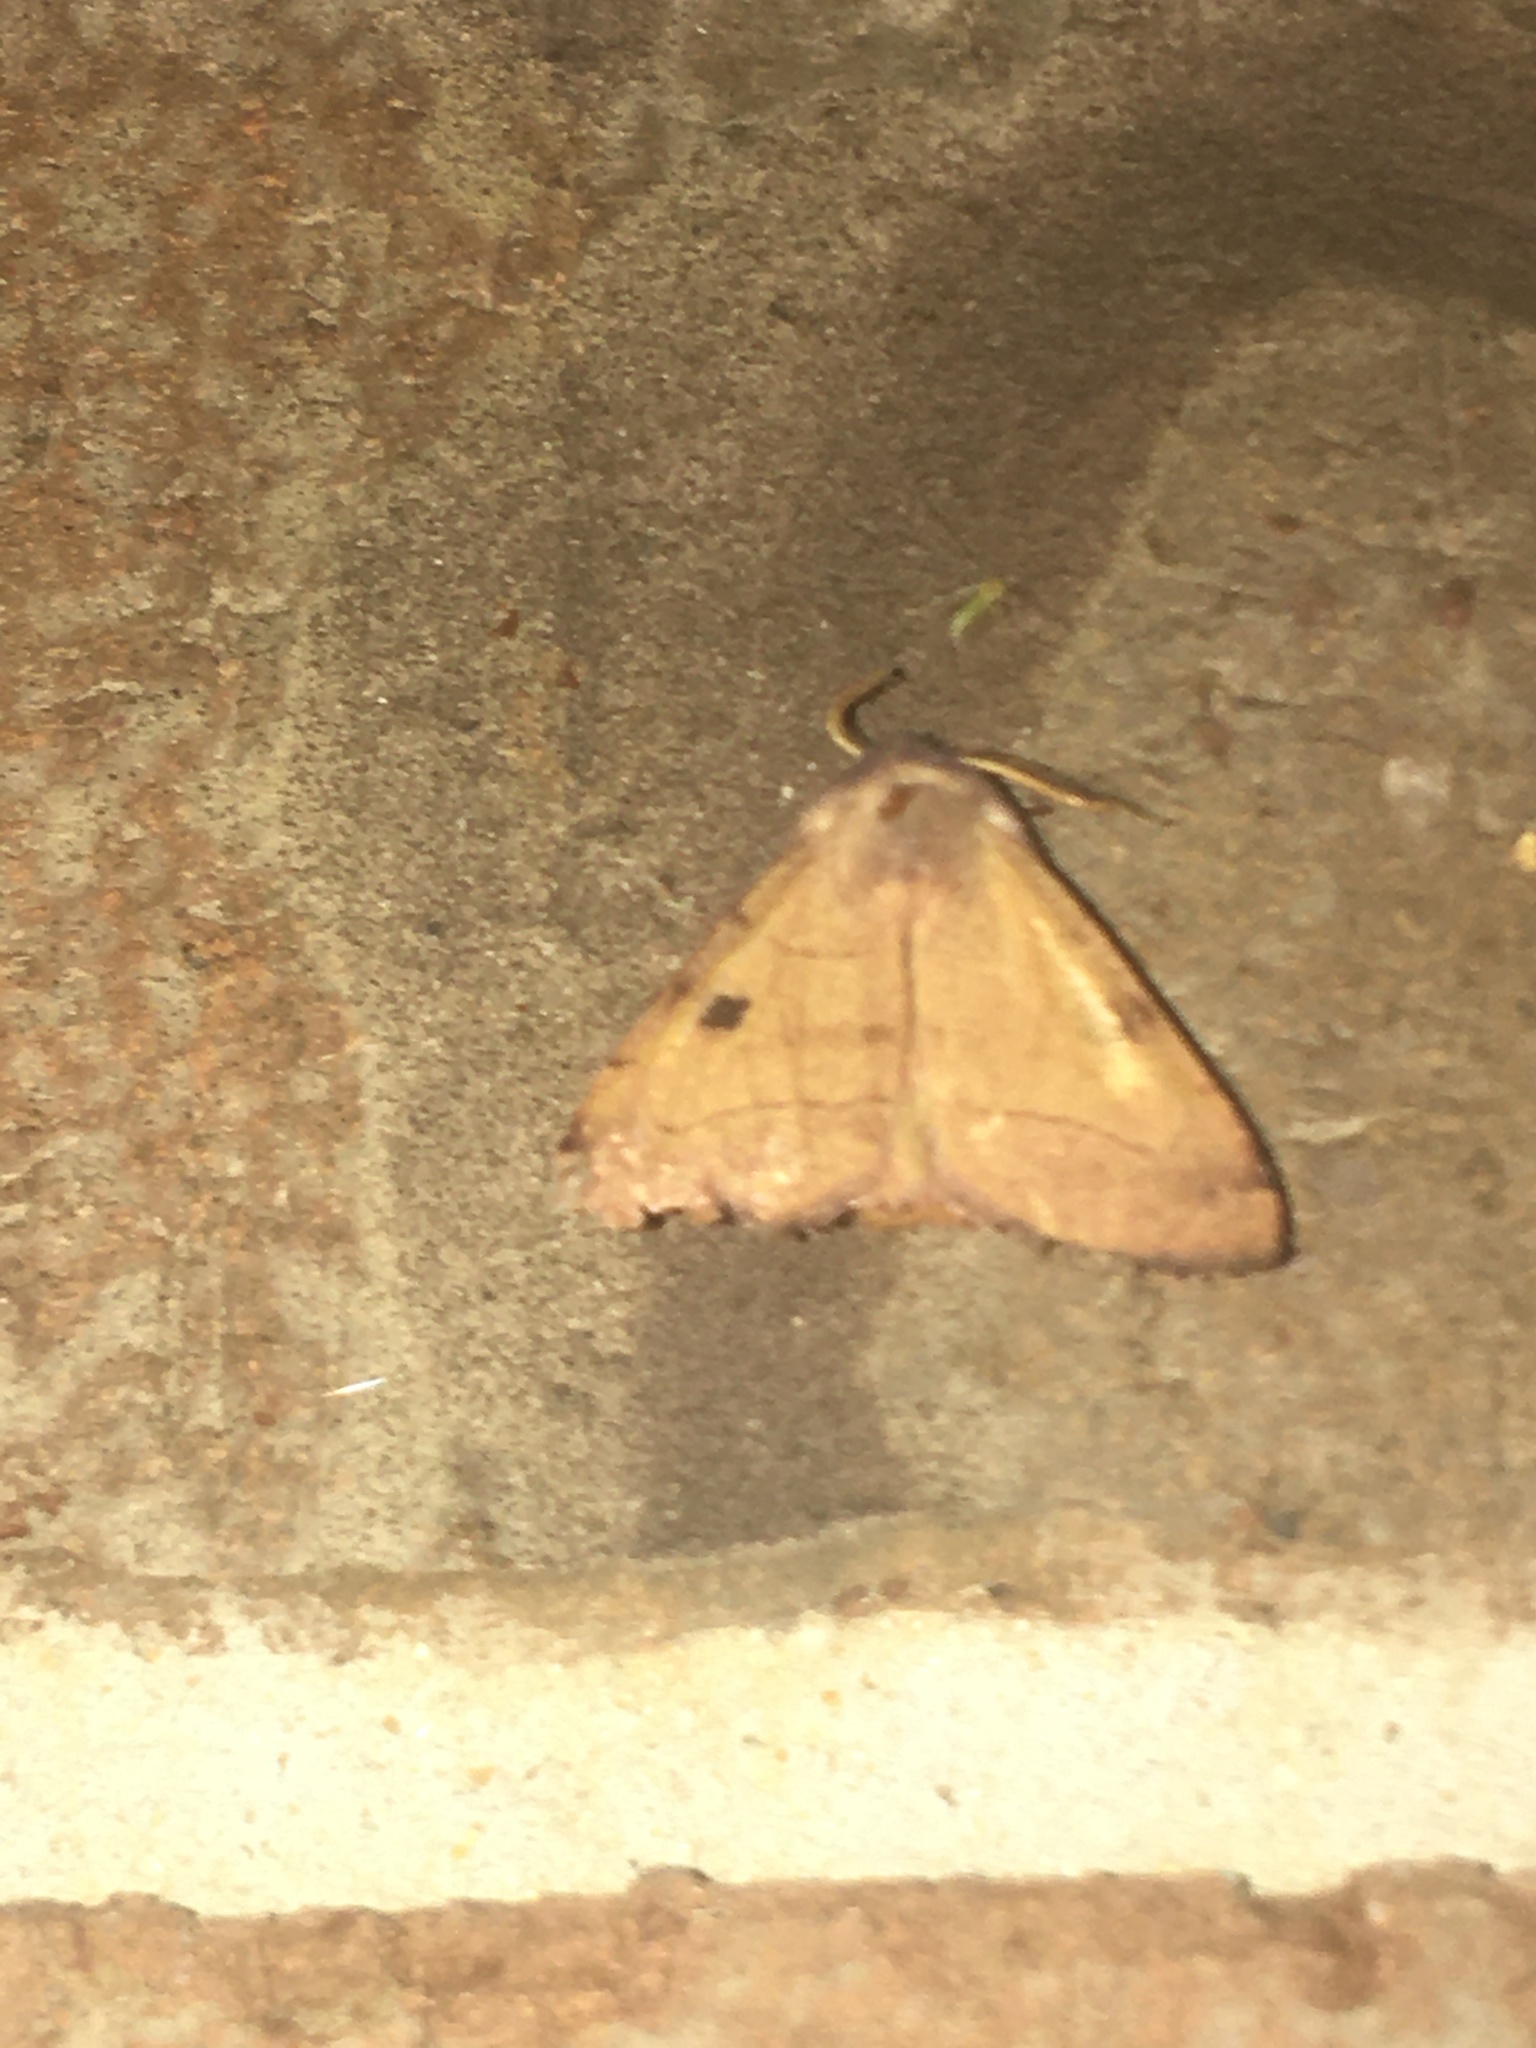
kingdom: Animalia
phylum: Arthropoda
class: Insecta
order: Lepidoptera
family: Noctuidae
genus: Choephora
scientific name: Choephora fungorum
